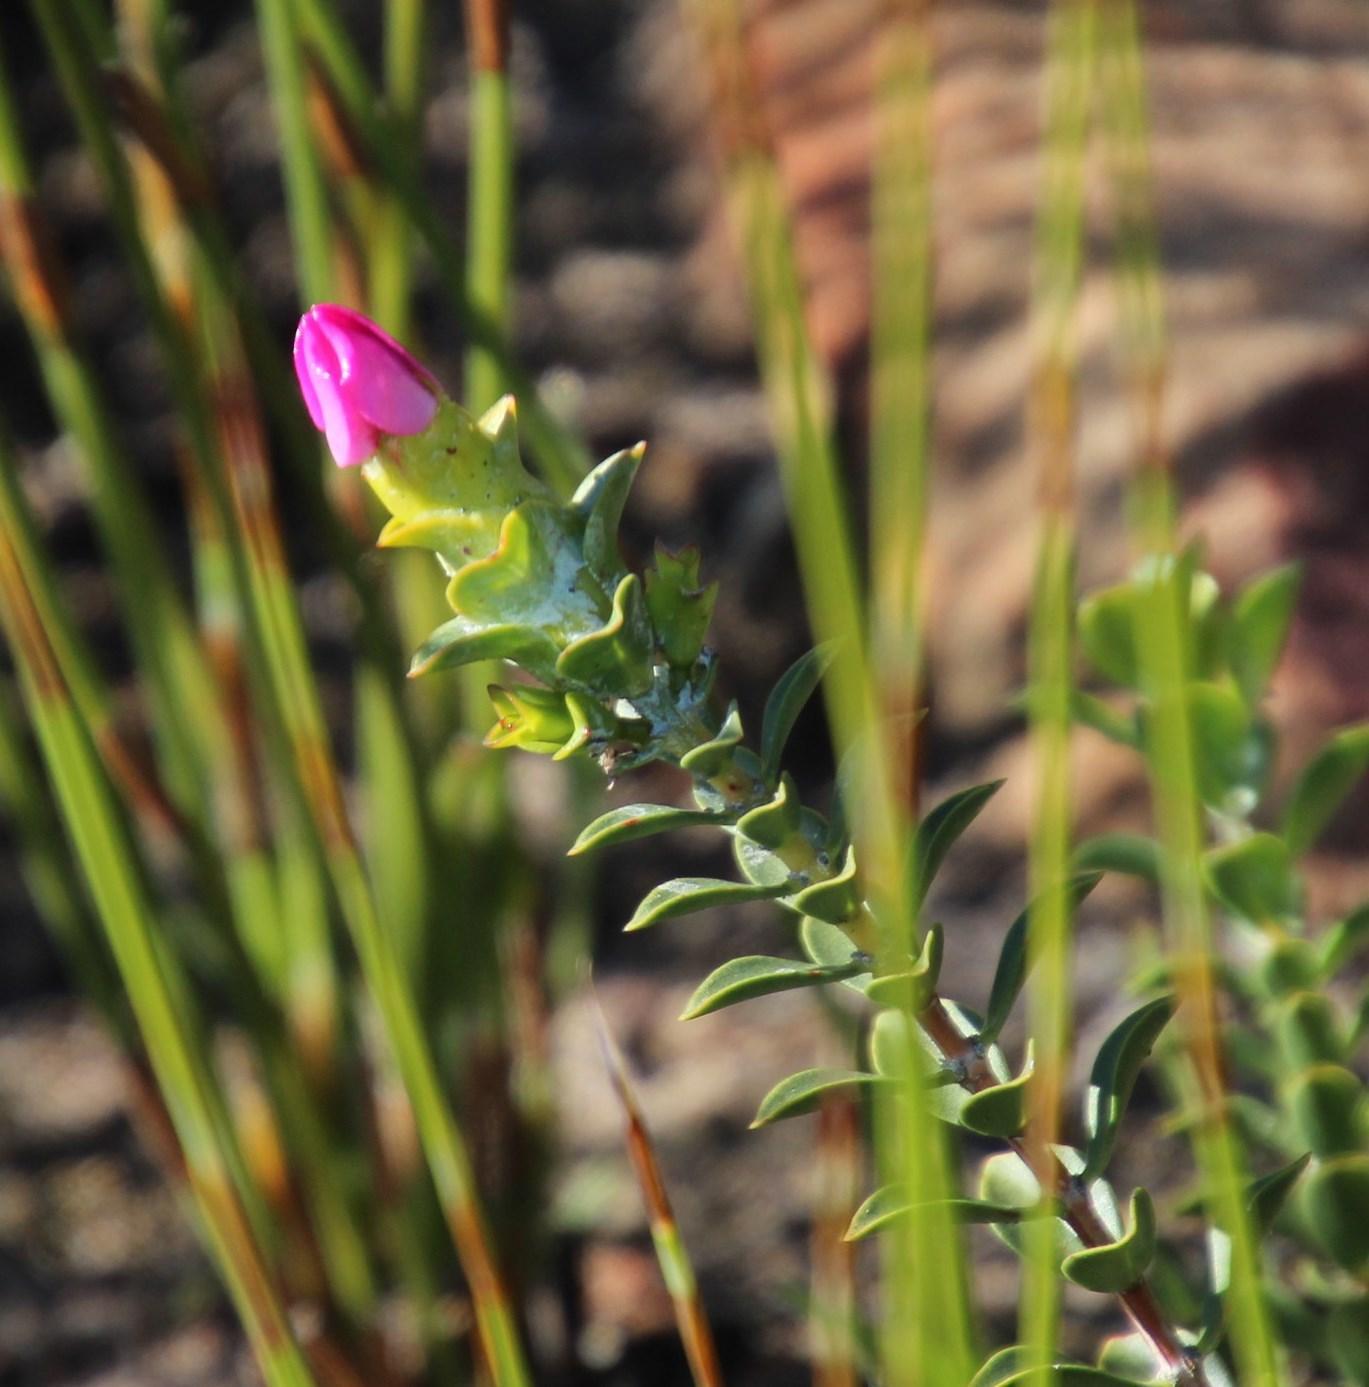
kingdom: Plantae
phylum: Tracheophyta
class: Magnoliopsida
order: Myrtales
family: Penaeaceae
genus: Saltera
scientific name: Saltera sarcocolla
